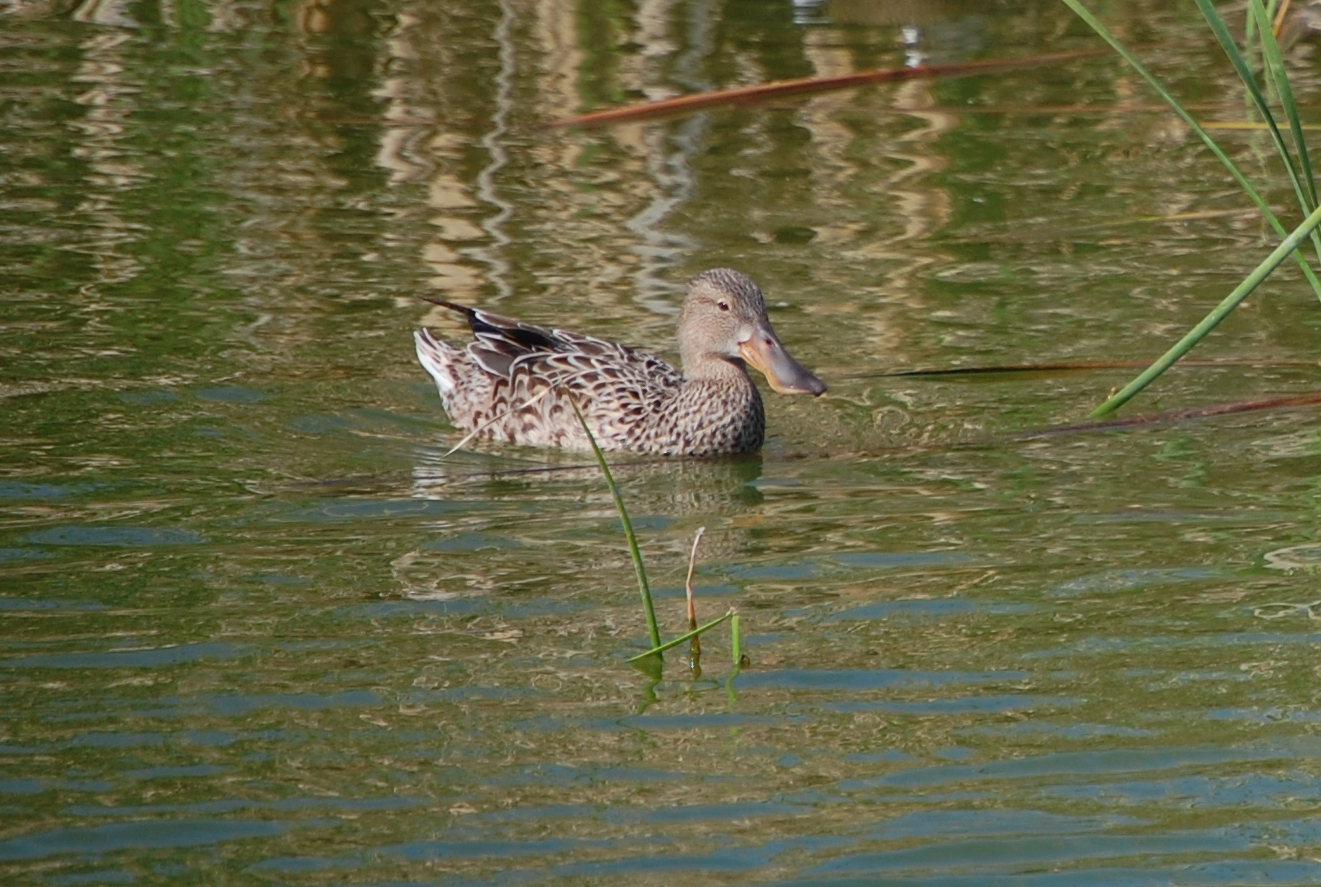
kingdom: Animalia
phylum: Chordata
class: Aves
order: Anseriformes
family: Anatidae
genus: Spatula
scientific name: Spatula clypeata
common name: Northern shoveler
